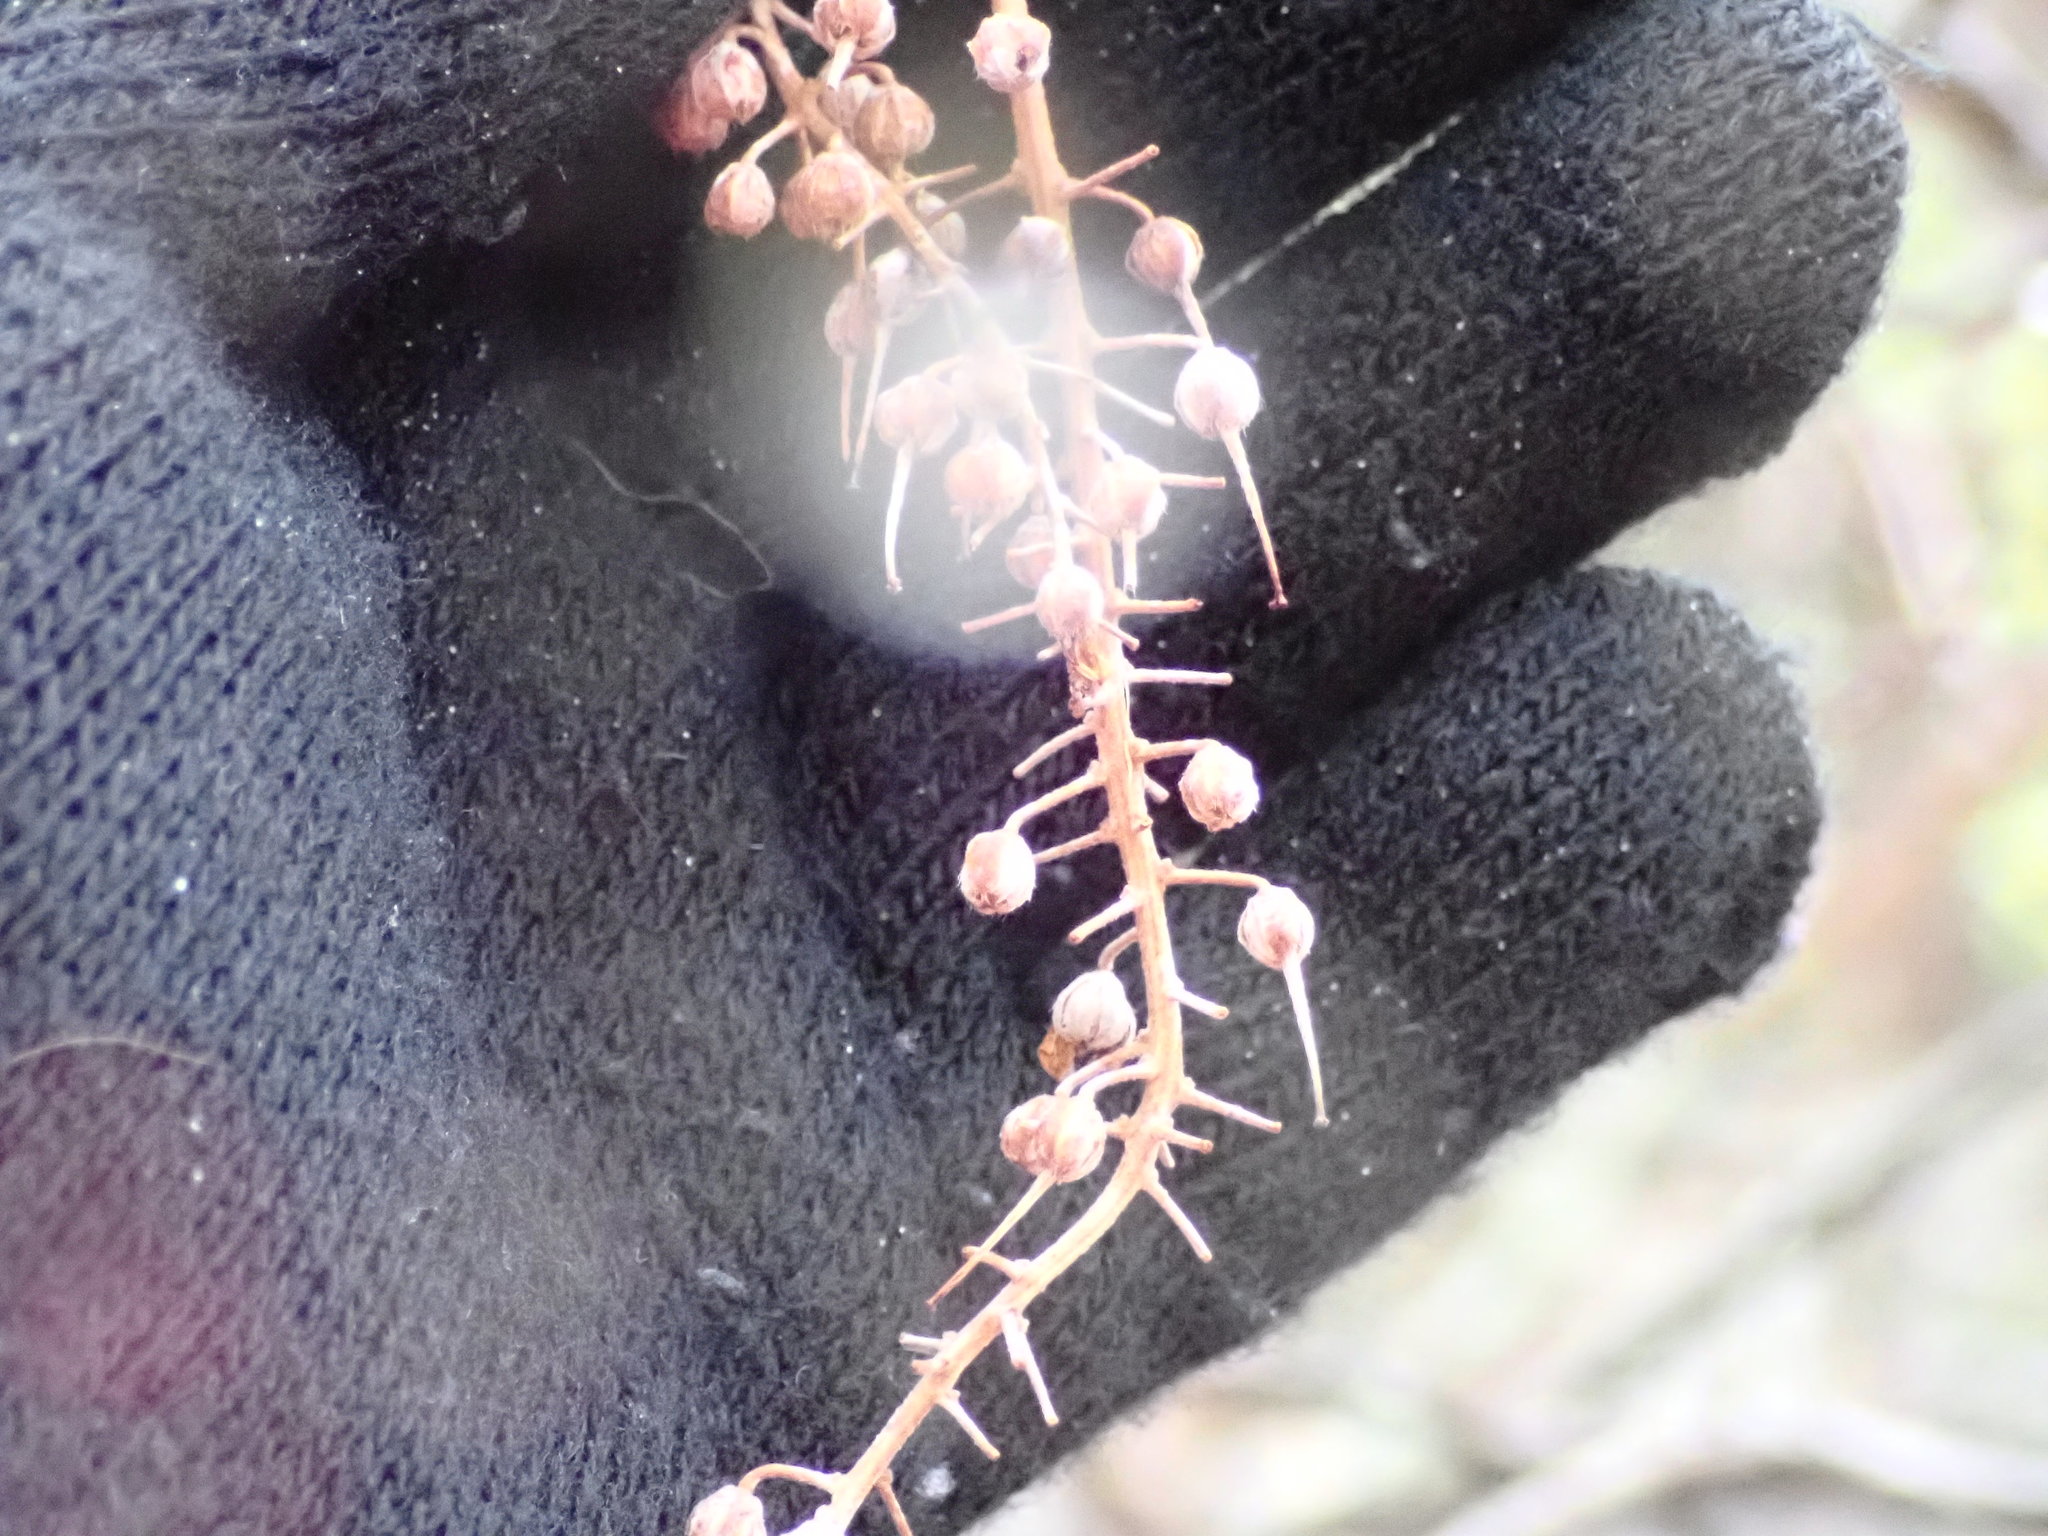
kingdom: Plantae
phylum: Tracheophyta
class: Magnoliopsida
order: Ericales
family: Clethraceae
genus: Clethra
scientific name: Clethra alnifolia
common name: Sweet pepperbush
